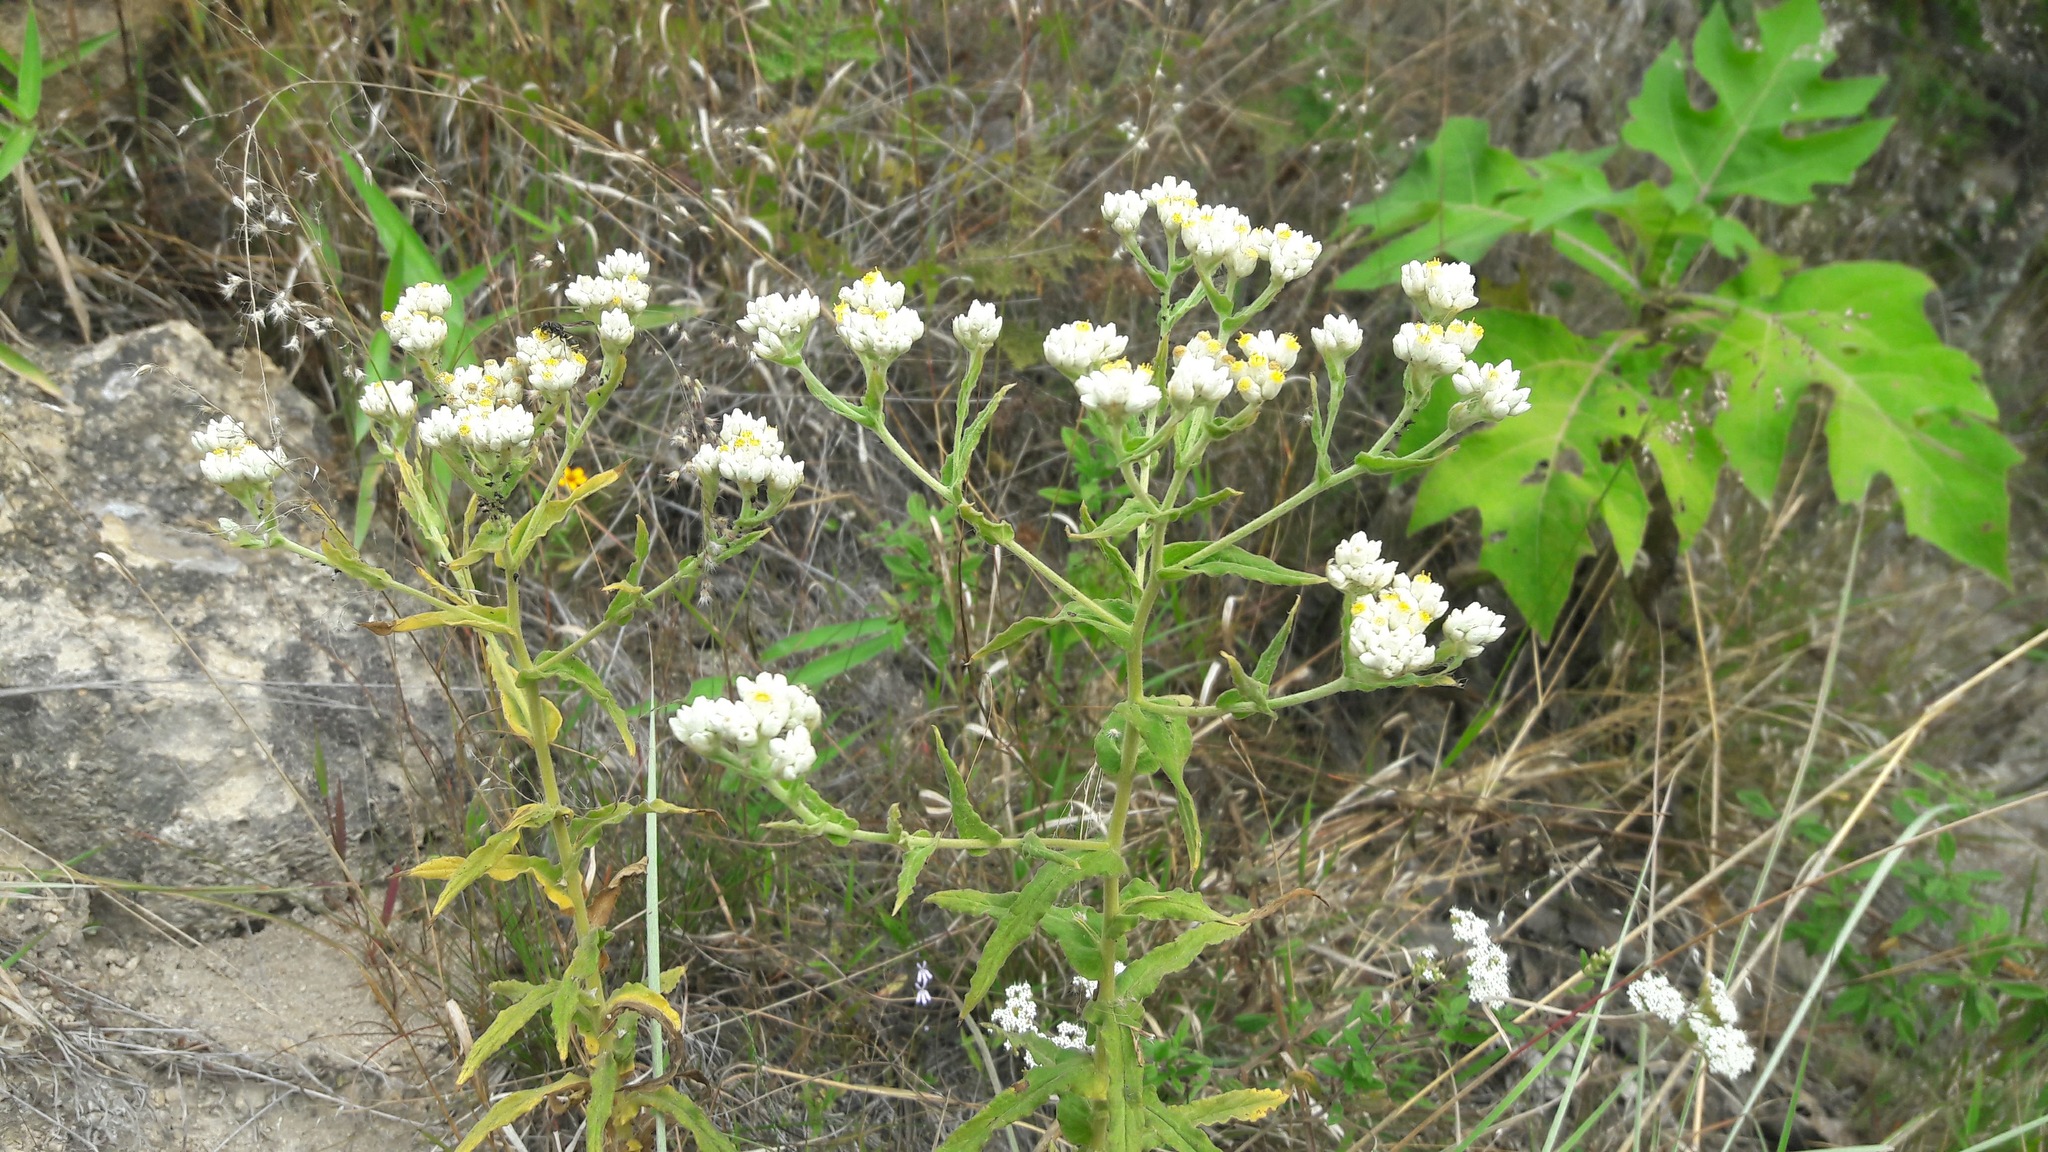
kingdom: Plantae
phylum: Tracheophyta
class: Magnoliopsida
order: Asterales
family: Asteraceae
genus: Pseudognaphalium
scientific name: Pseudognaphalium viscosum
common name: Sticky rabbit-tobacco
